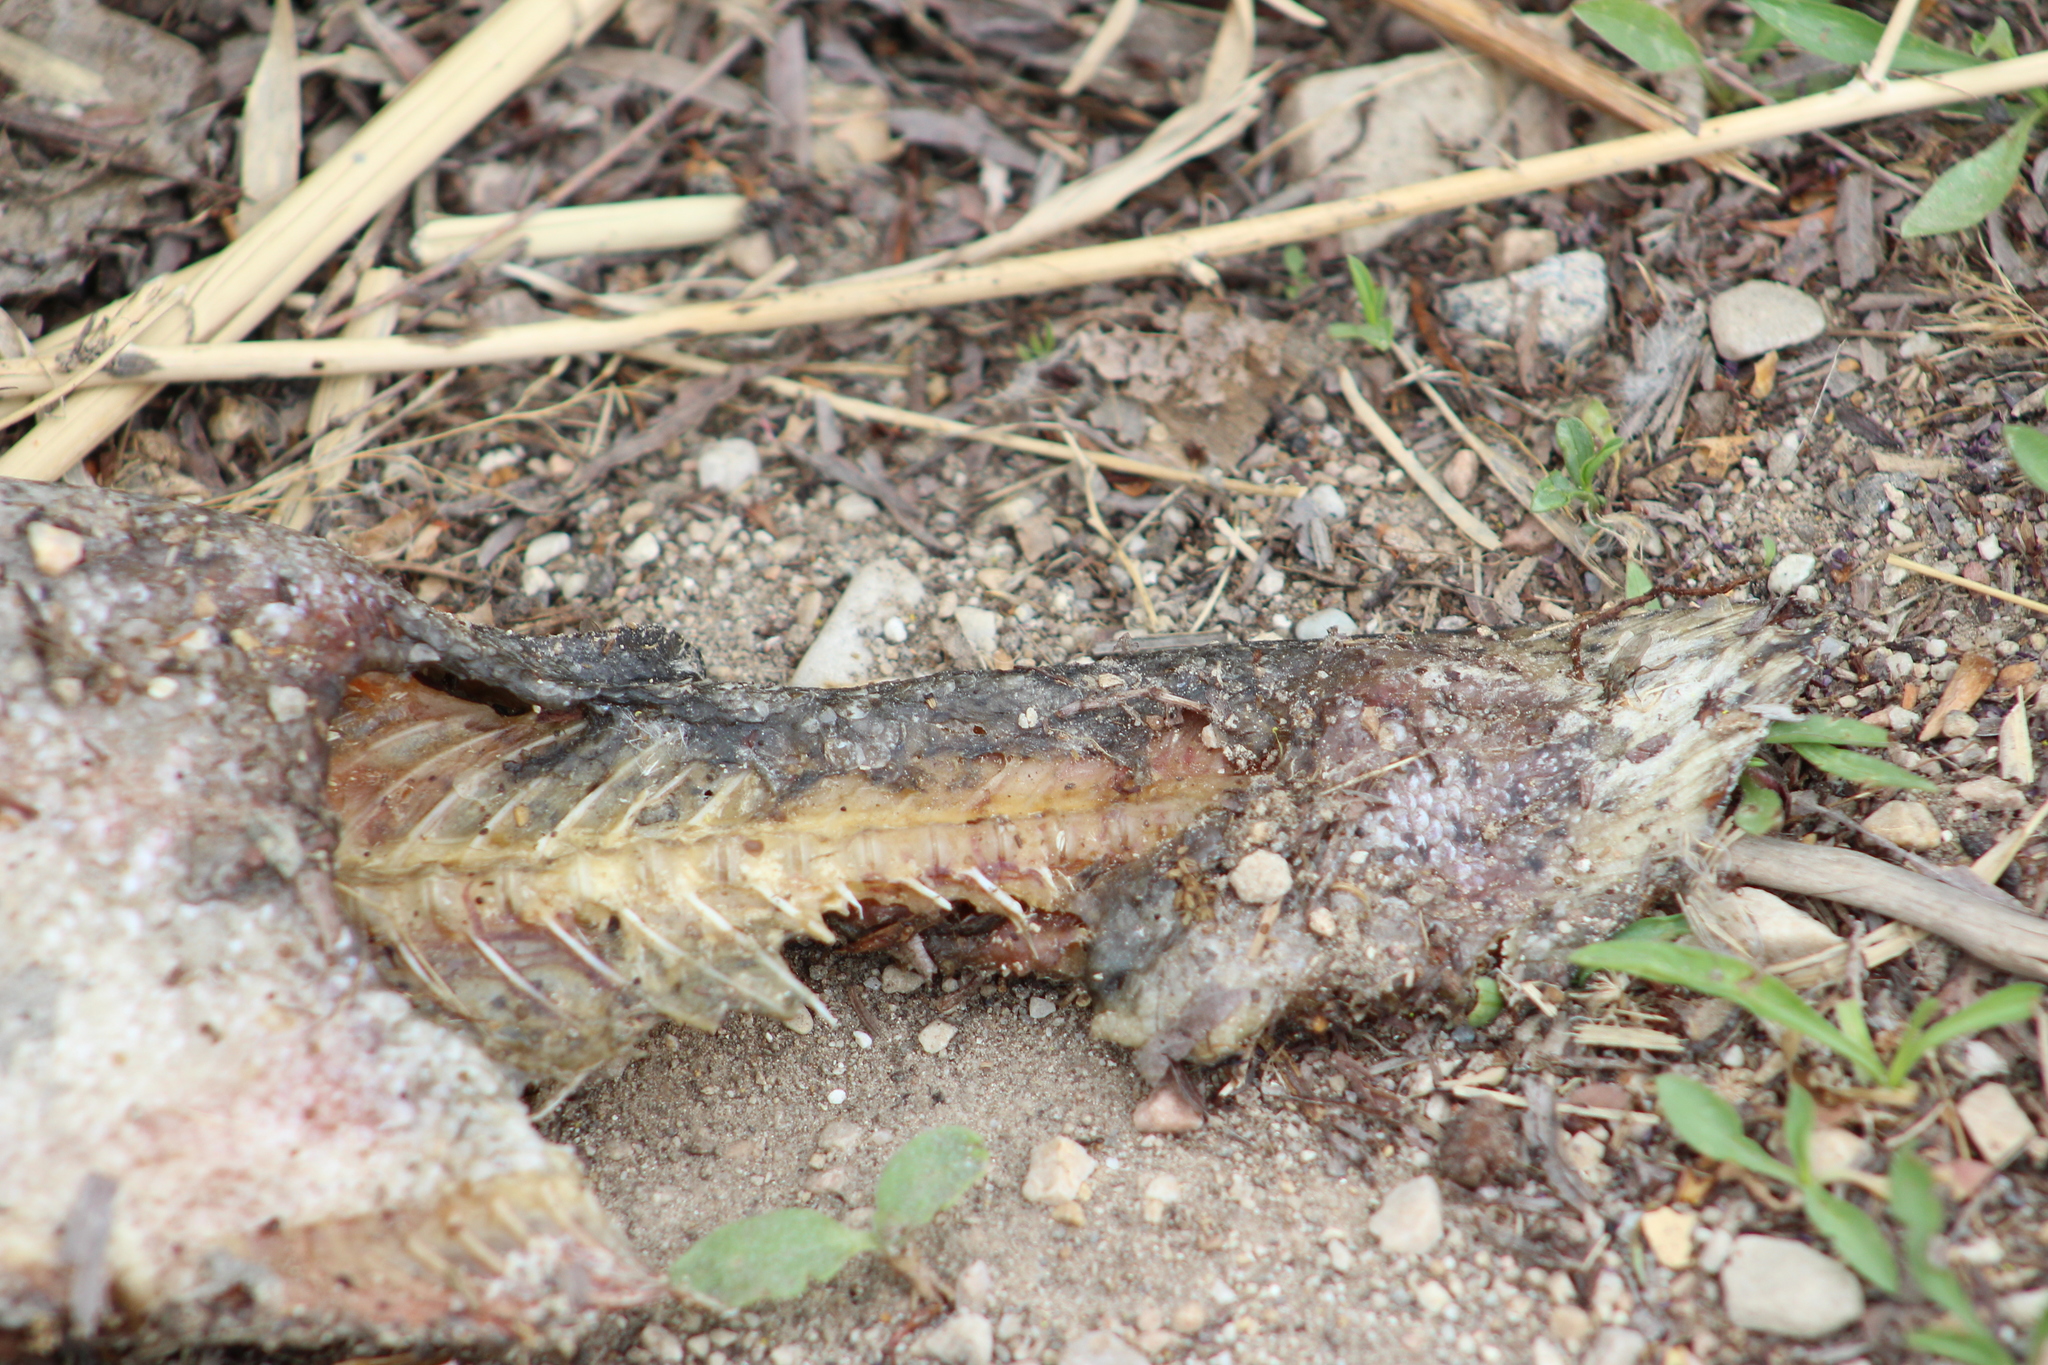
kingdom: Animalia
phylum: Chordata
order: Salmoniformes
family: Salmonidae
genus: Oncorhynchus
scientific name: Oncorhynchus mykiss
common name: Rainbow trout
